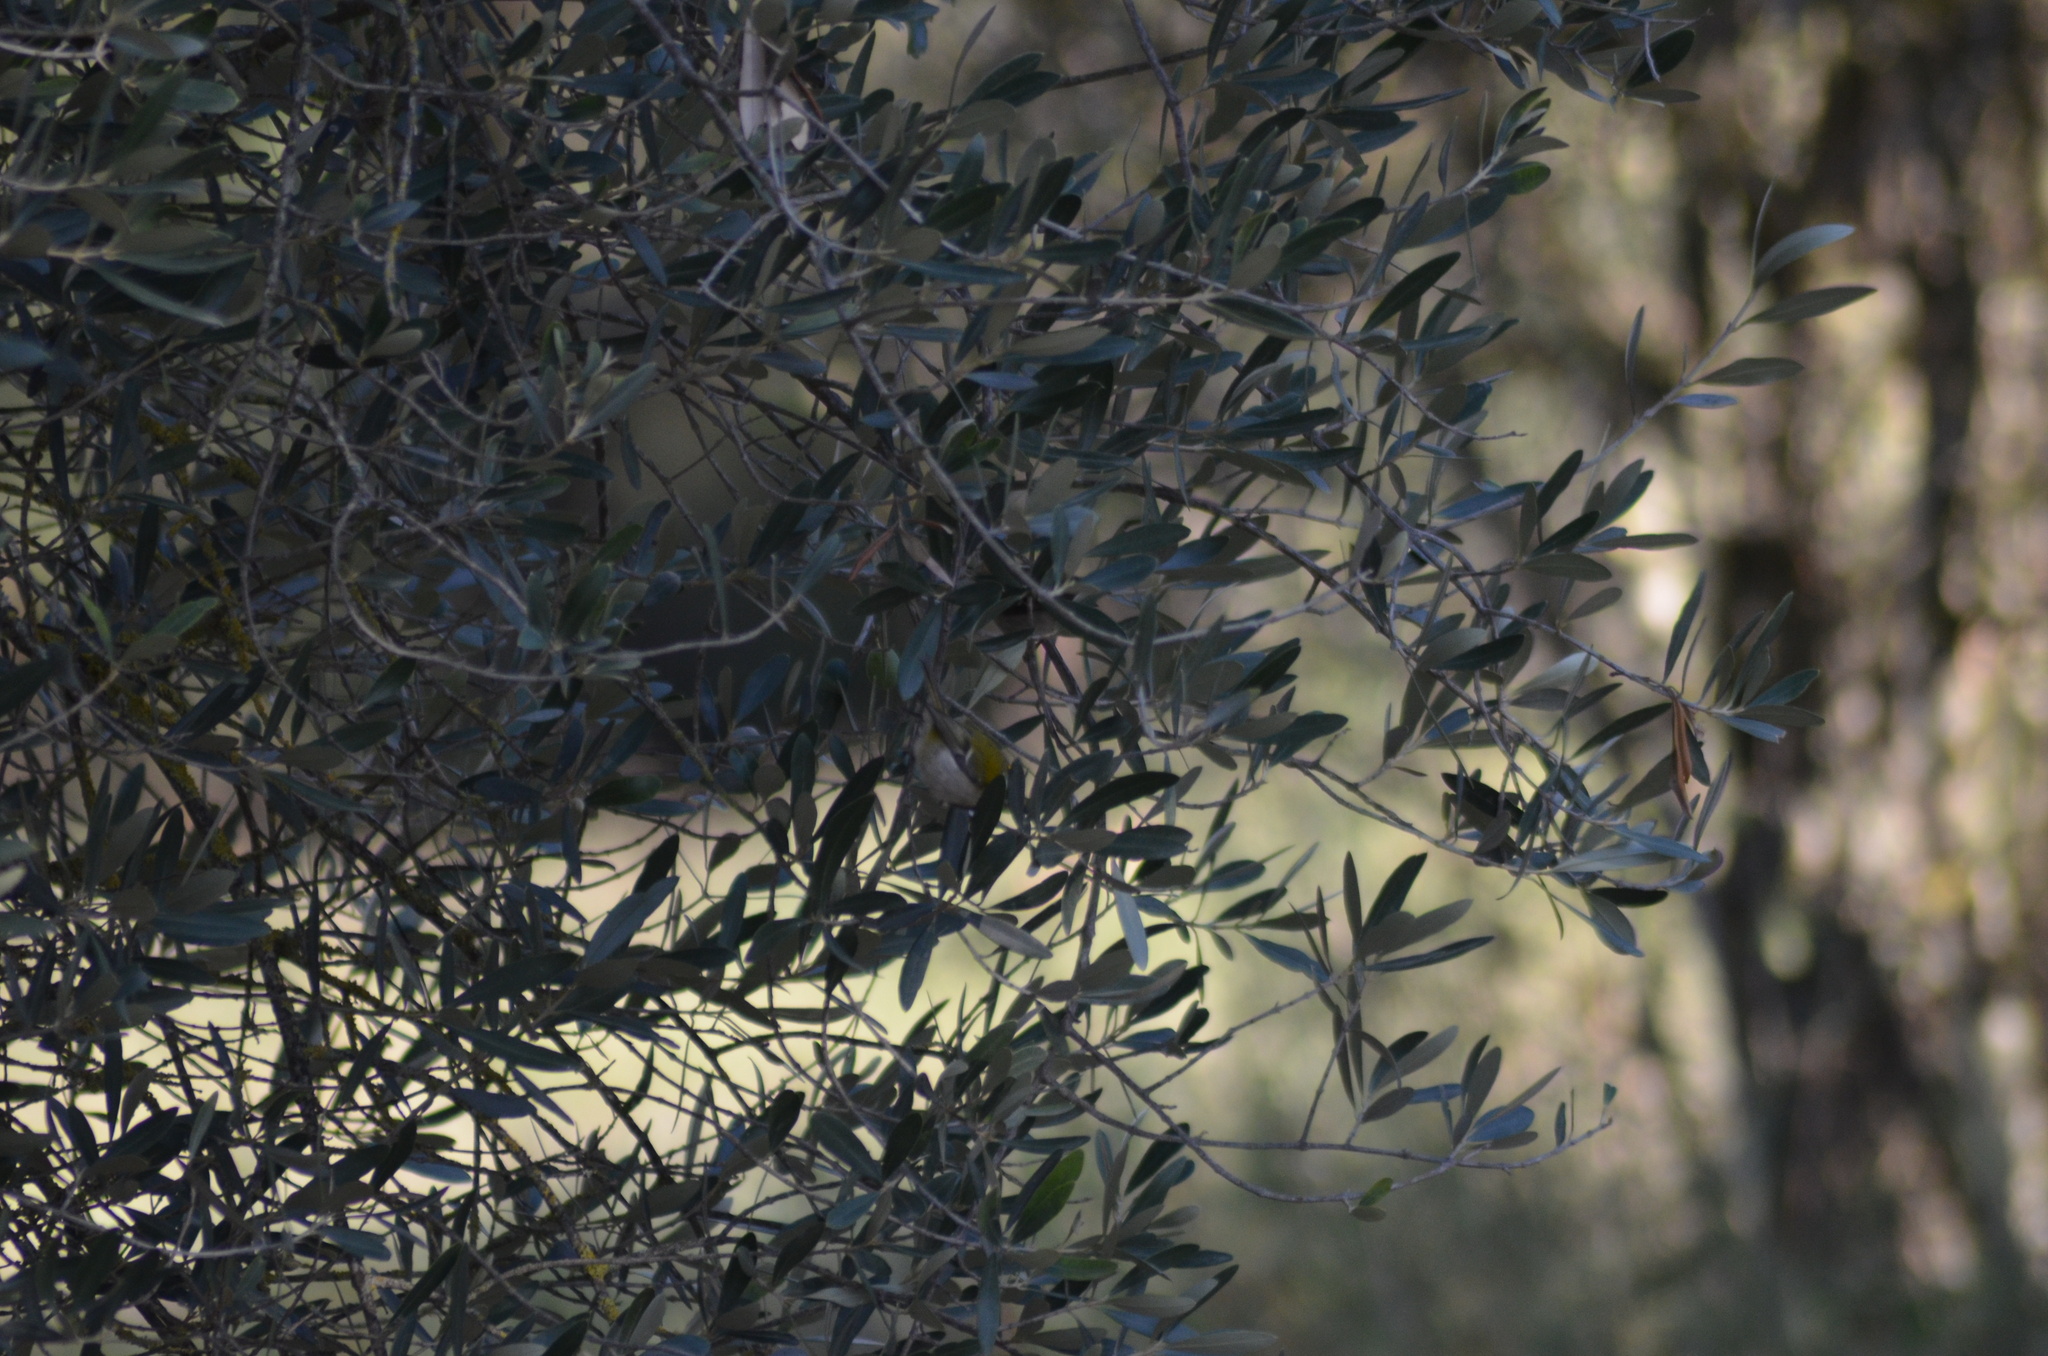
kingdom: Animalia
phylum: Chordata
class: Aves
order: Passeriformes
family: Regulidae
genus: Regulus
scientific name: Regulus ignicapilla
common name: Firecrest
